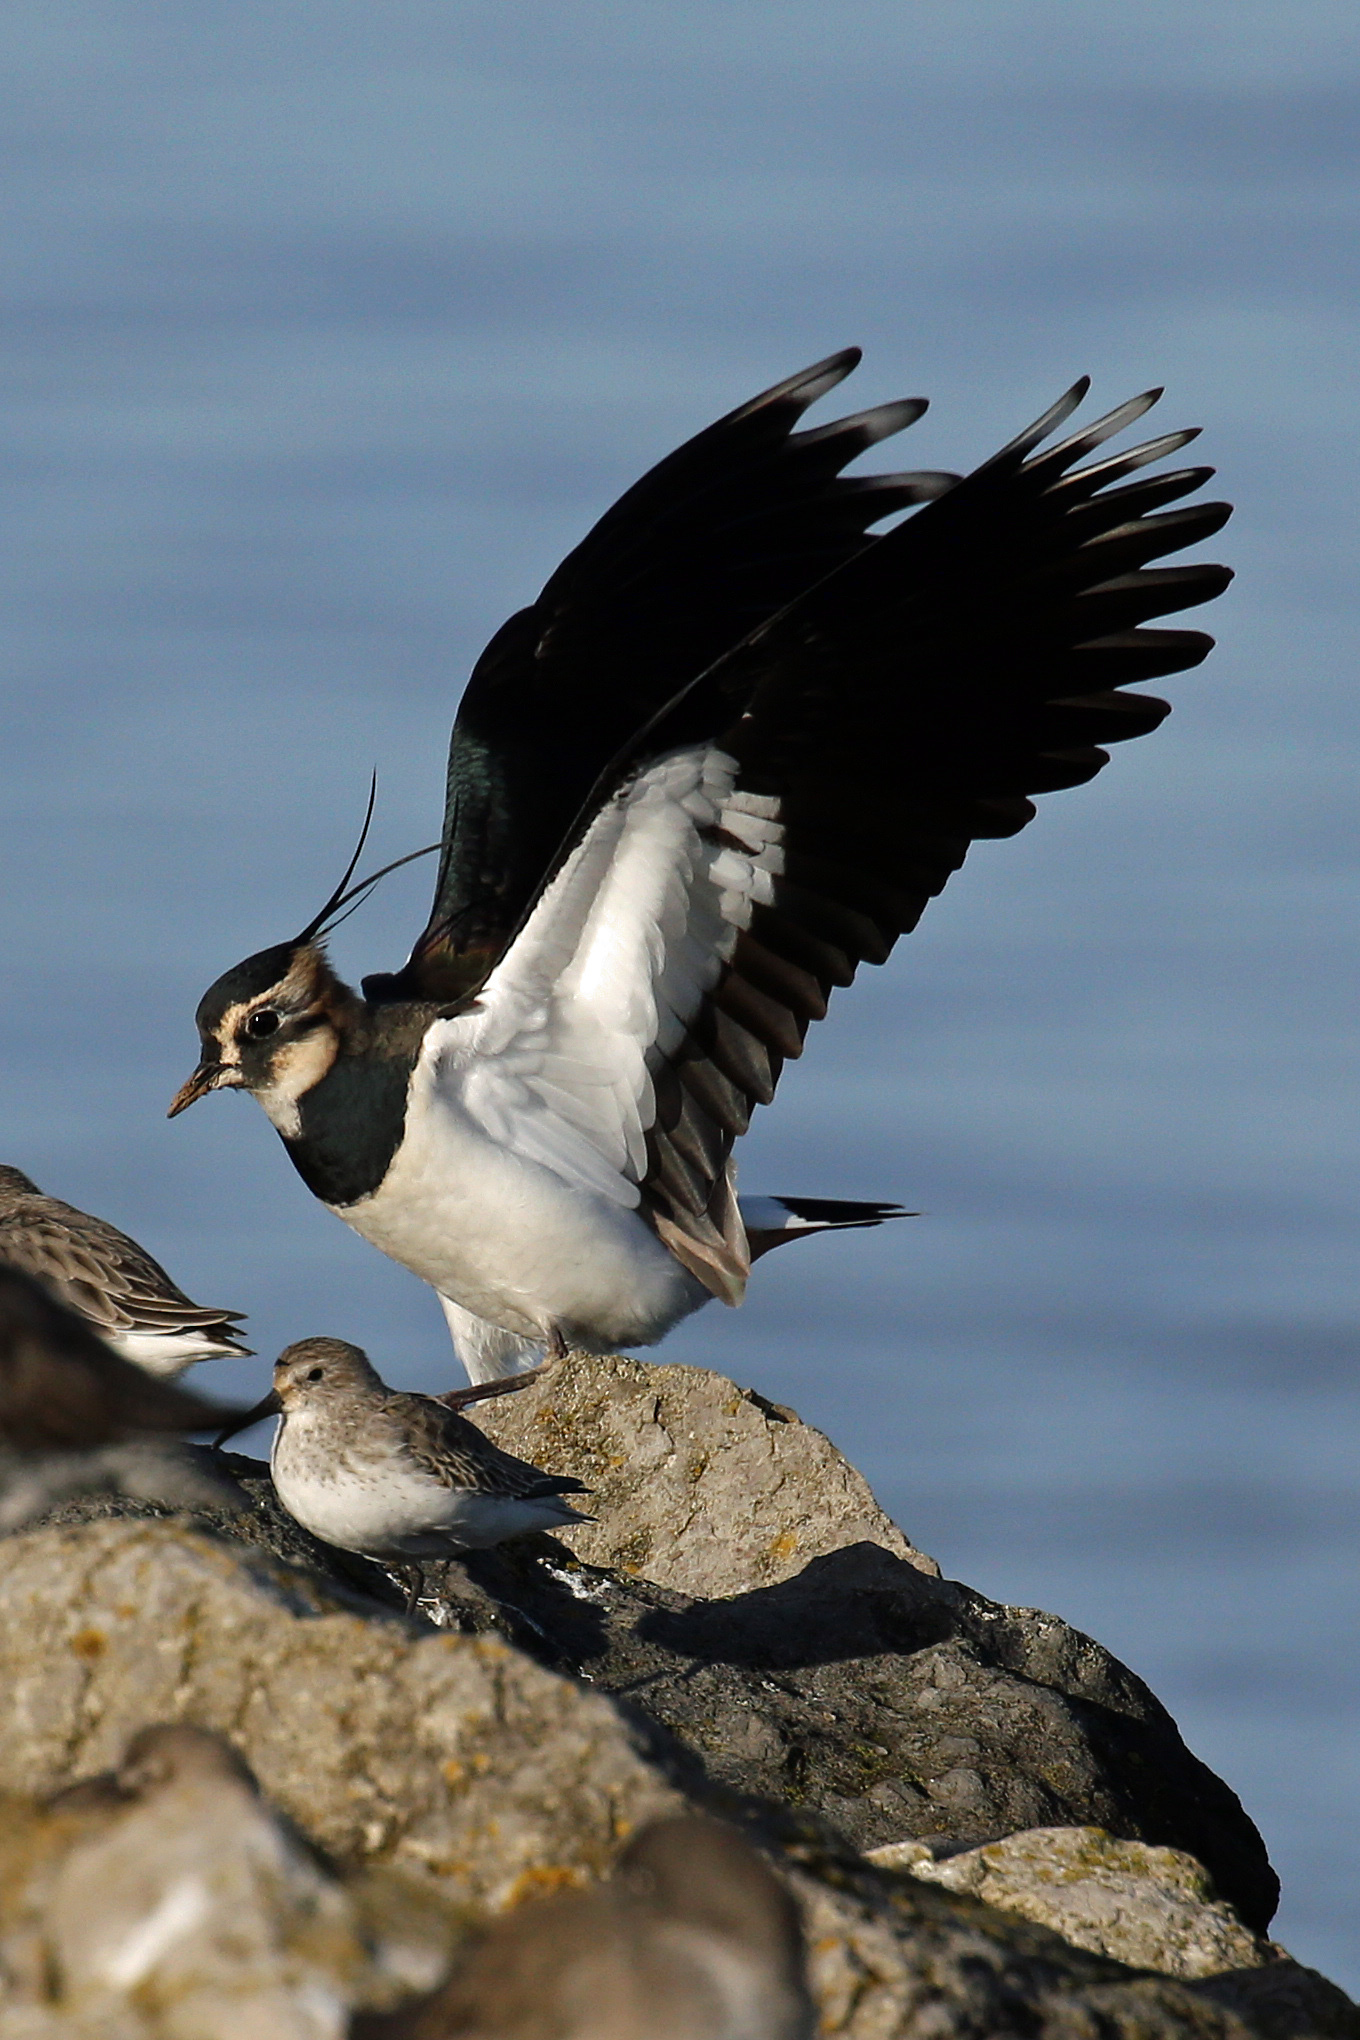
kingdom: Animalia
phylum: Chordata
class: Aves
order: Charadriiformes
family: Charadriidae
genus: Vanellus
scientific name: Vanellus vanellus
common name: Northern lapwing
